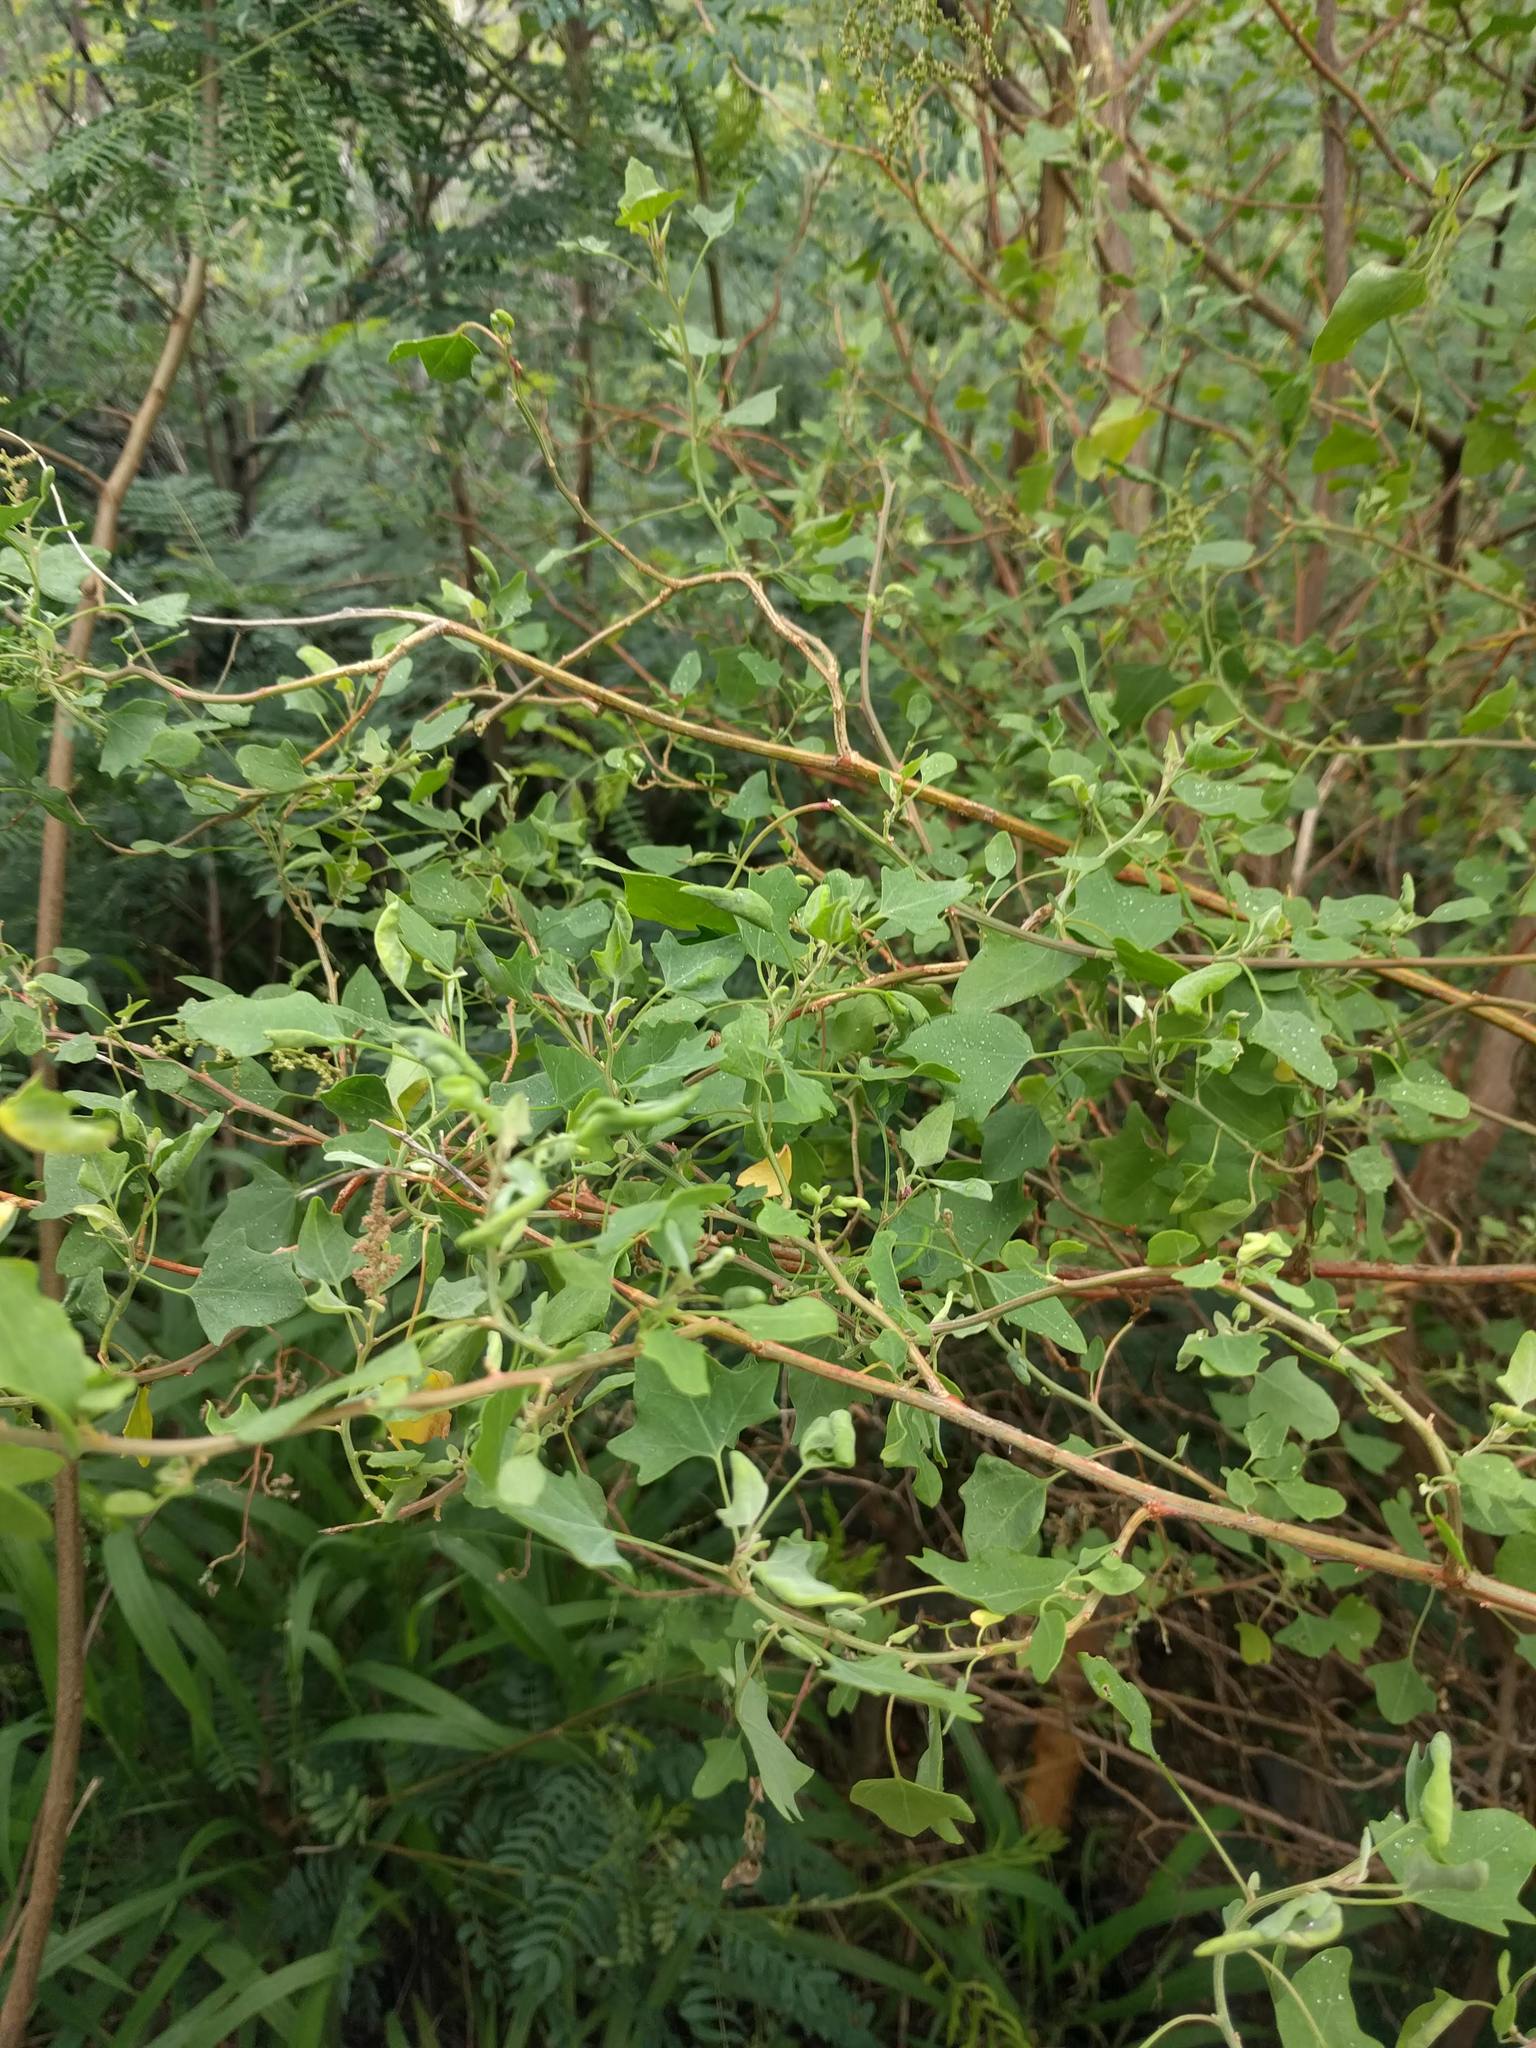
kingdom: Plantae
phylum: Tracheophyta
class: Magnoliopsida
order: Caryophyllales
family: Amaranthaceae
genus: Chenopodium
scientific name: Chenopodium oahuense
